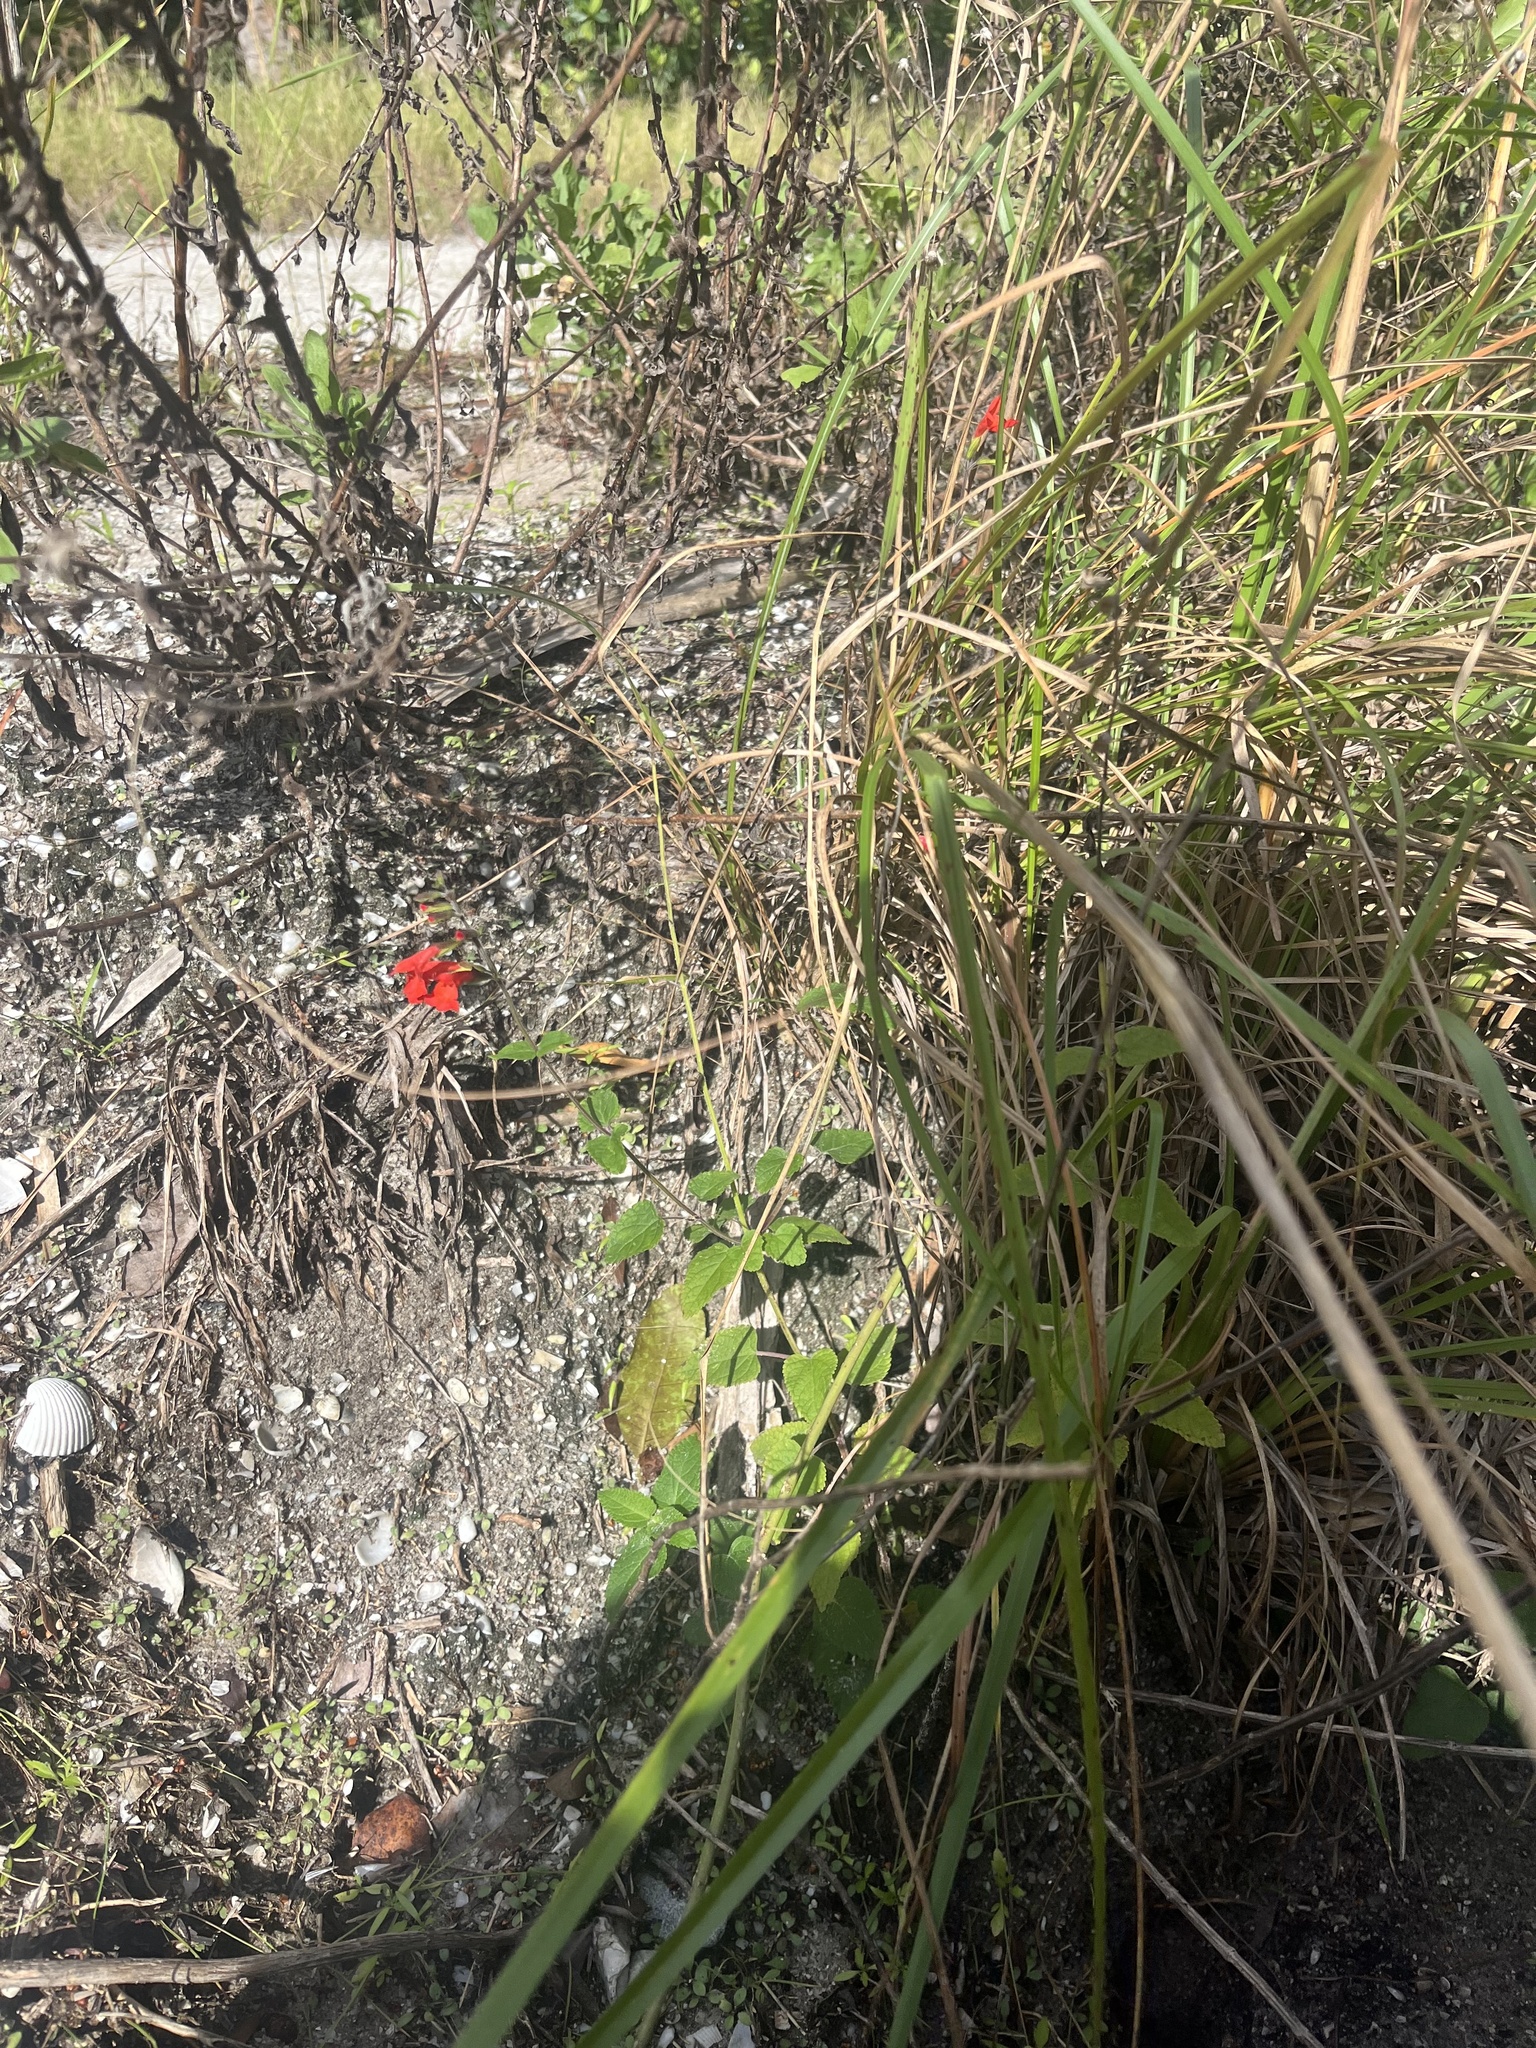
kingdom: Plantae
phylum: Tracheophyta
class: Magnoliopsida
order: Lamiales
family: Lamiaceae
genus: Salvia
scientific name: Salvia coccinea
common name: Blood sage
